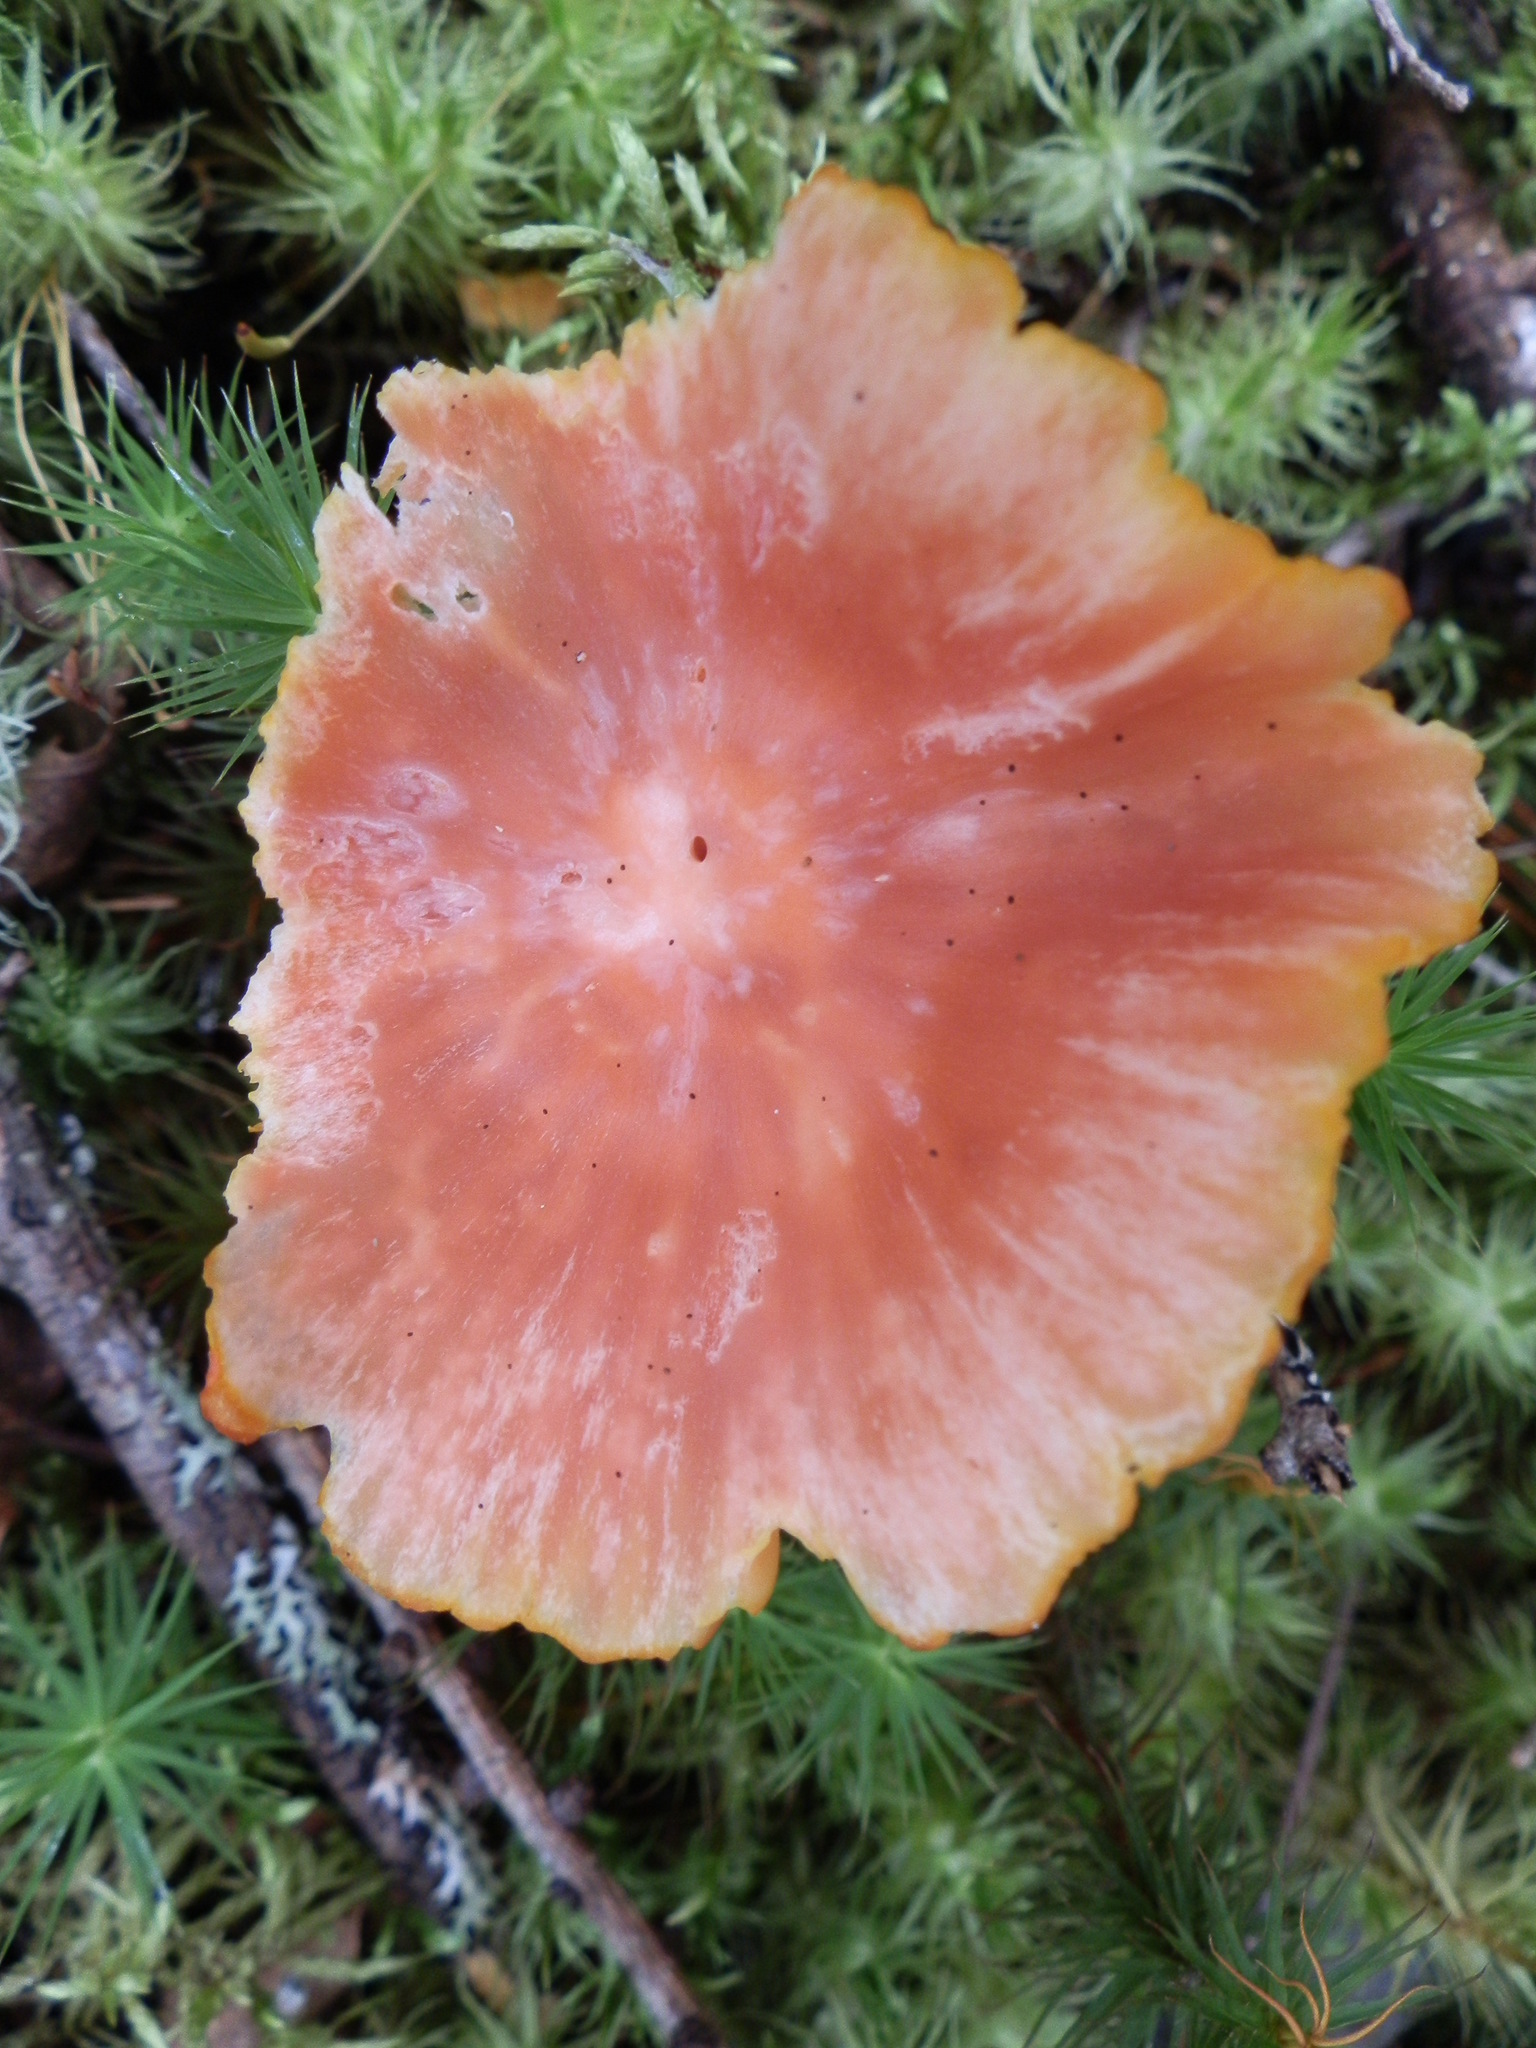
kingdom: Fungi
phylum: Basidiomycota
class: Agaricomycetes
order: Agaricales
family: Hygrophoraceae
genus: Humidicutis
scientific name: Humidicutis marginata
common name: Orange gilled waxcap
